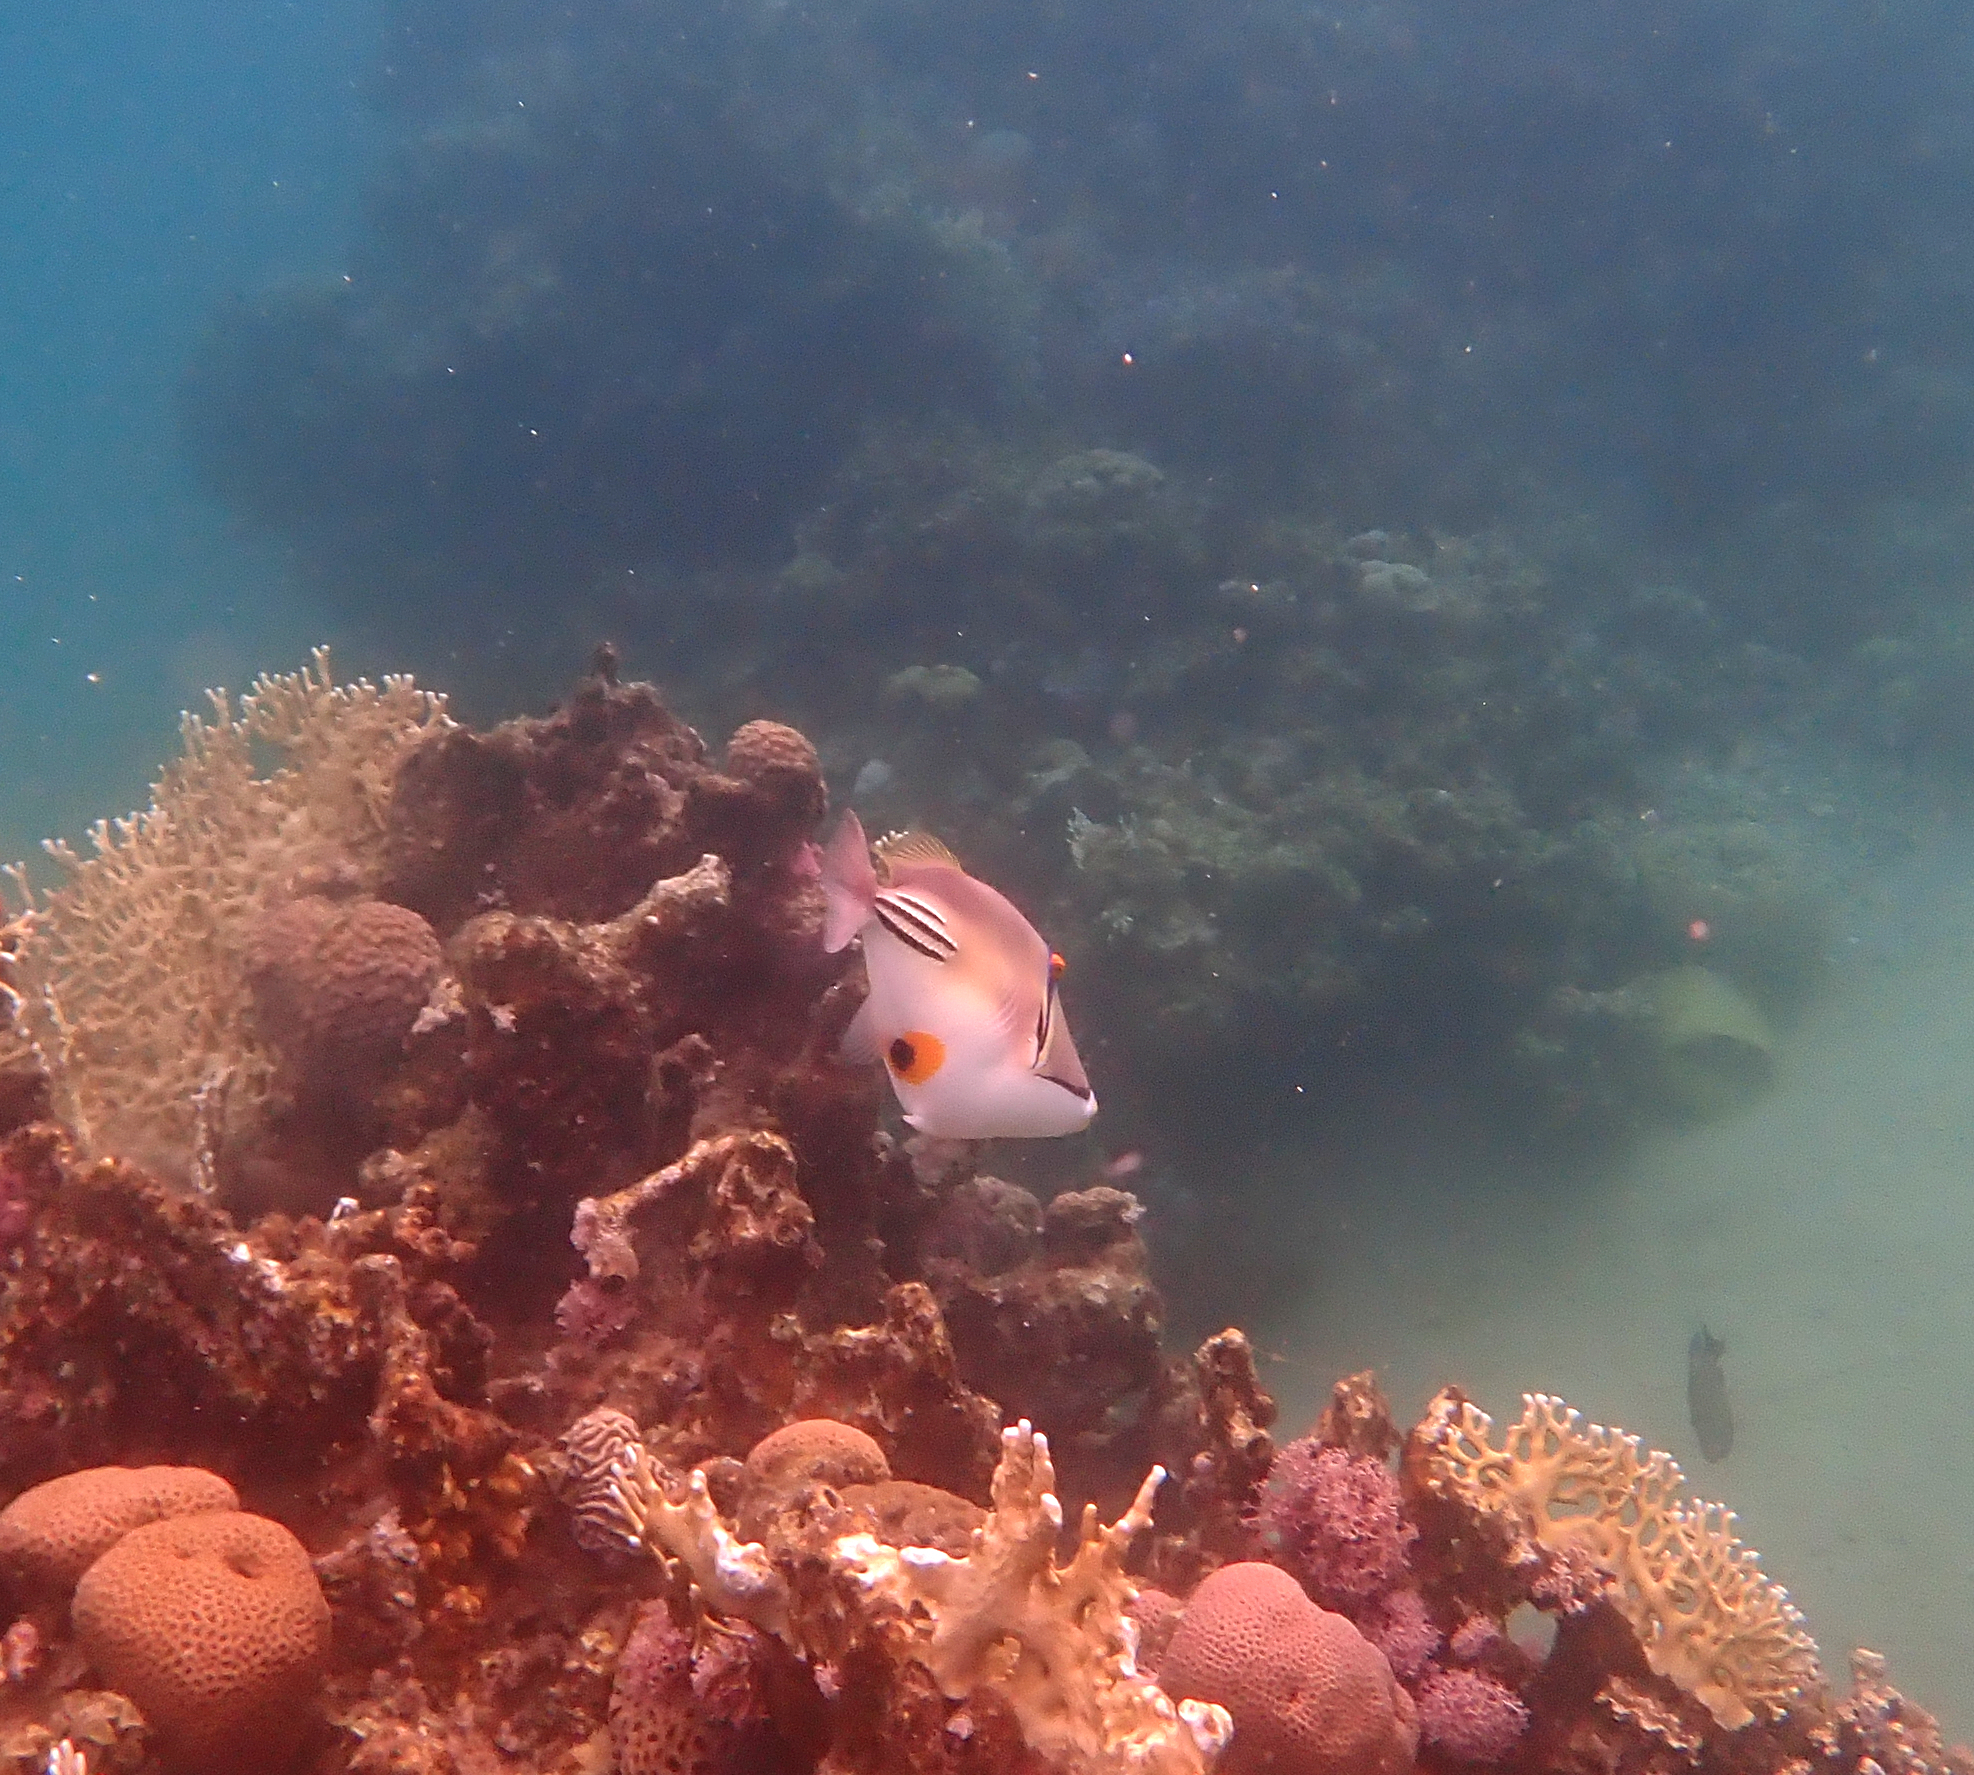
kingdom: Animalia
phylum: Chordata
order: Tetraodontiformes
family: Balistidae
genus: Rhinecanthus
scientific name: Rhinecanthus assasi
